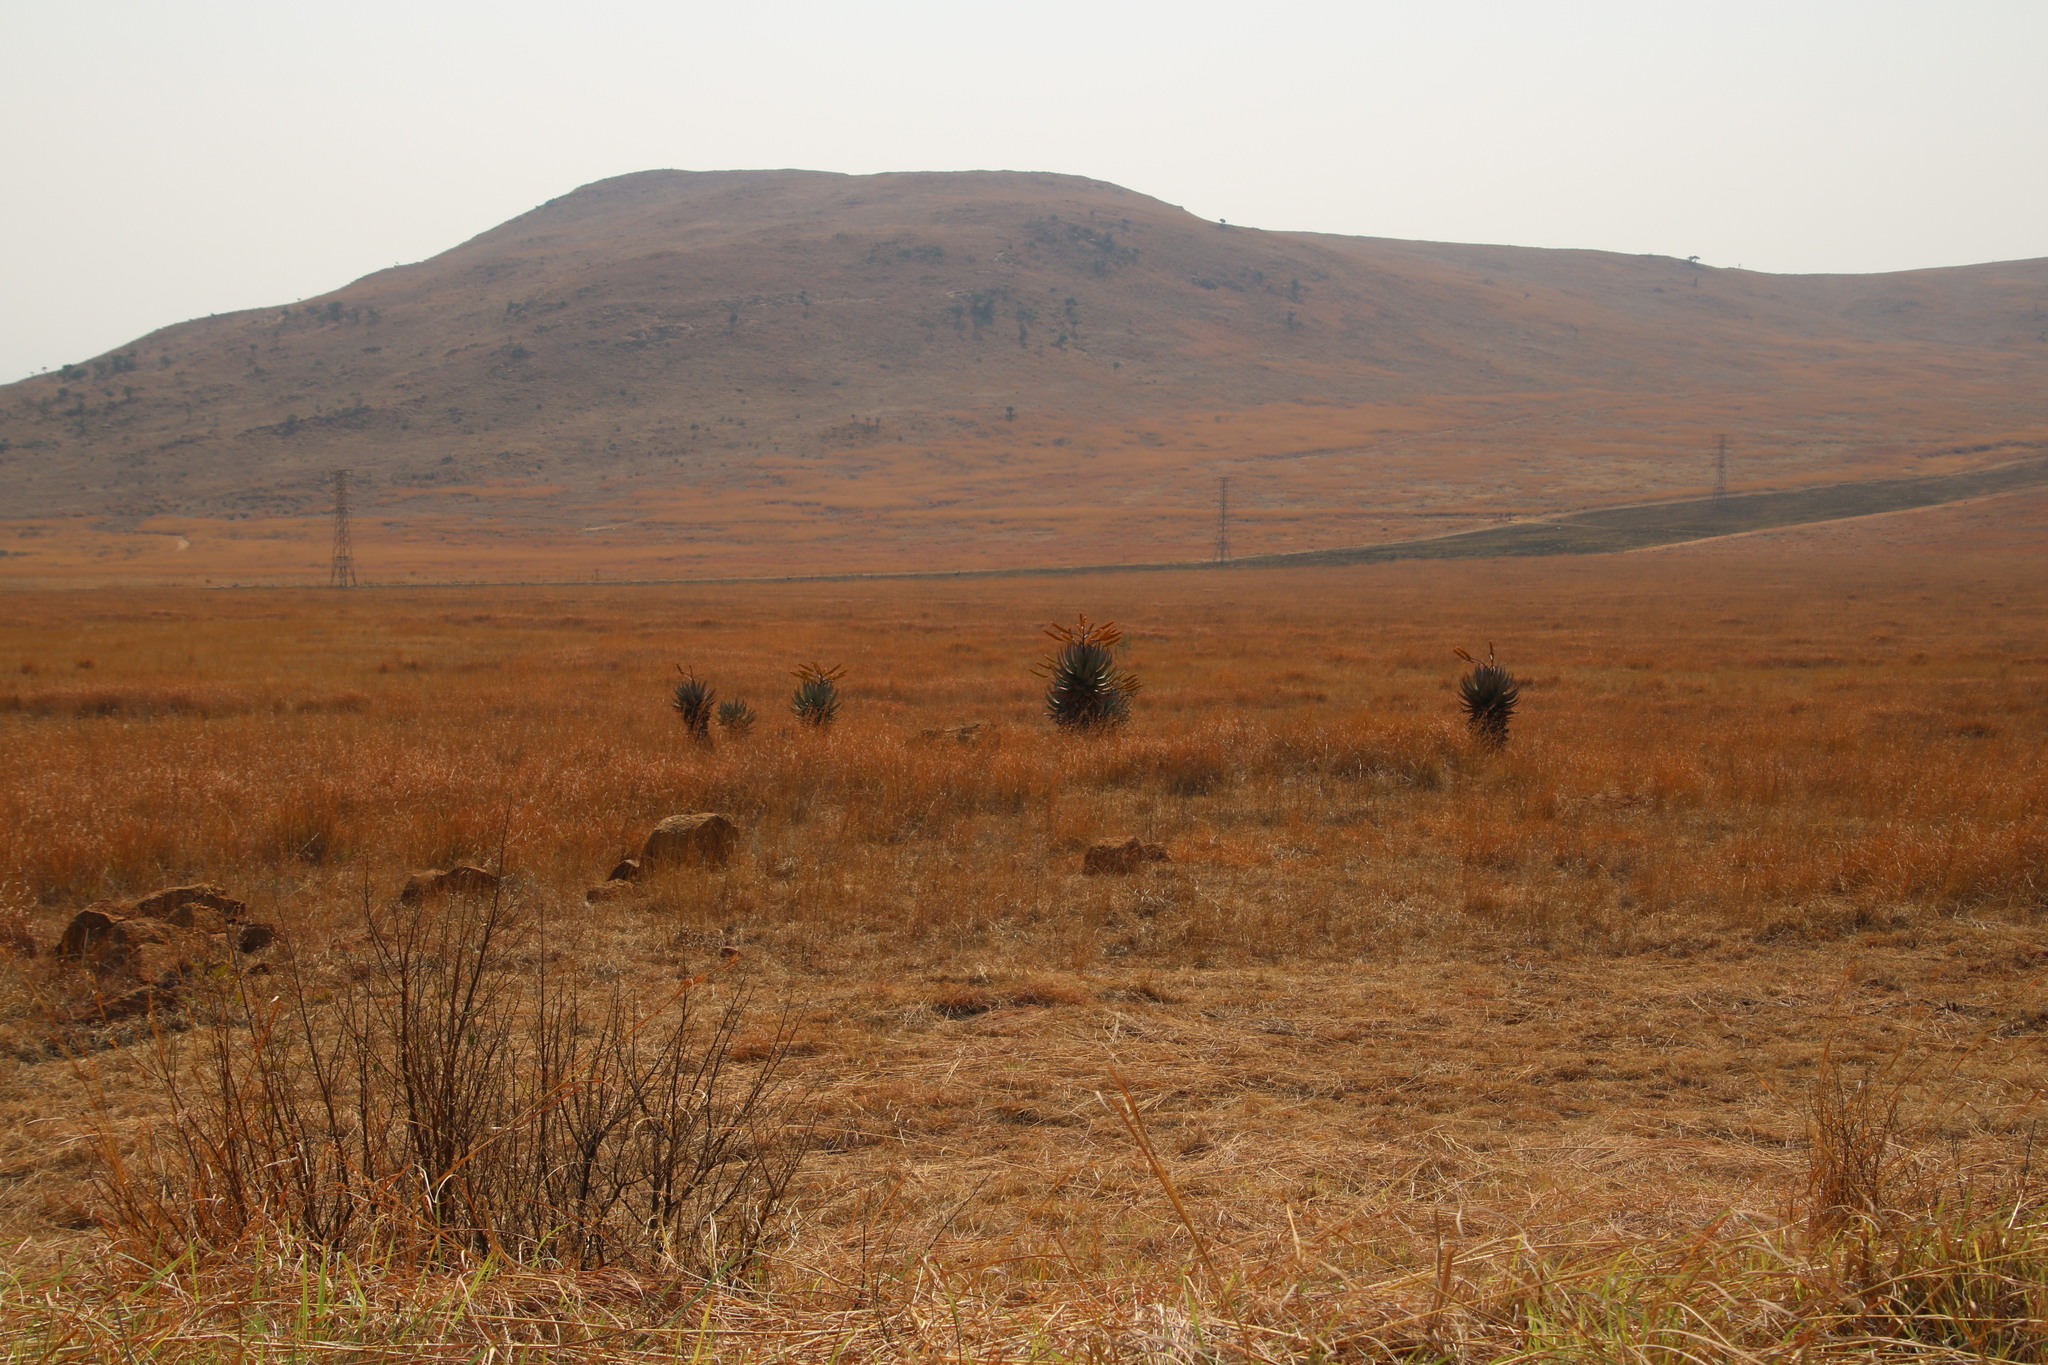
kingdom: Plantae
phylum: Tracheophyta
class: Liliopsida
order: Asparagales
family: Asphodelaceae
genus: Aloe
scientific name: Aloe marlothii
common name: Flat-flowered aloe
